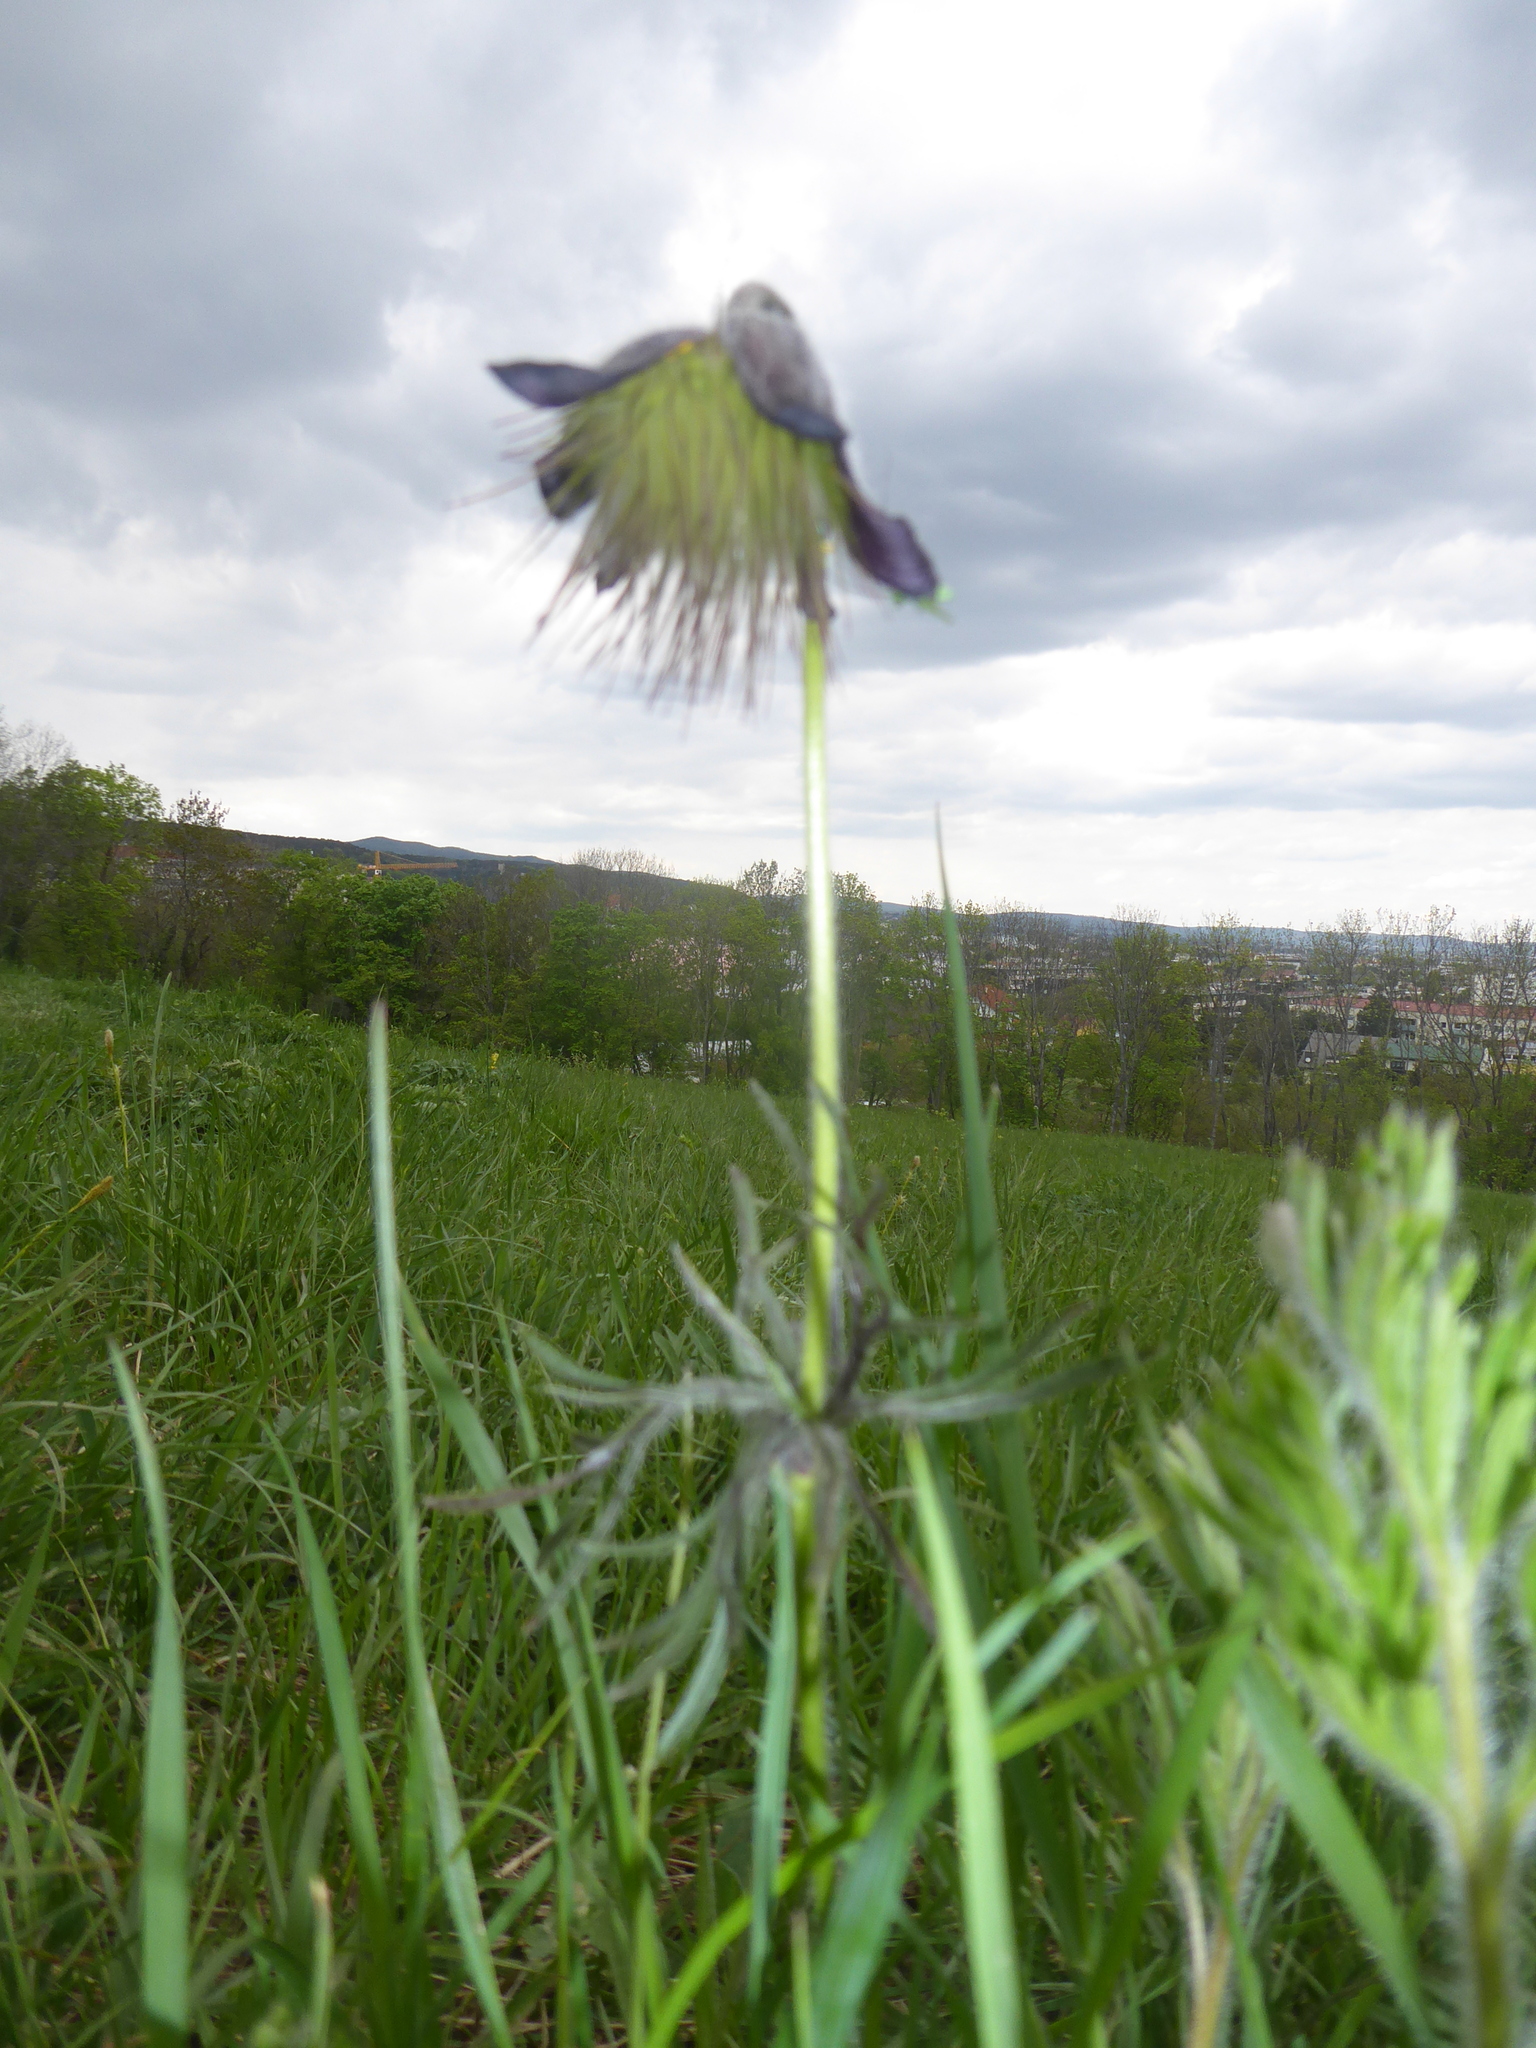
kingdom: Plantae
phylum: Tracheophyta
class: Magnoliopsida
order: Ranunculales
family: Ranunculaceae
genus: Pulsatilla
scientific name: Pulsatilla pratensis
